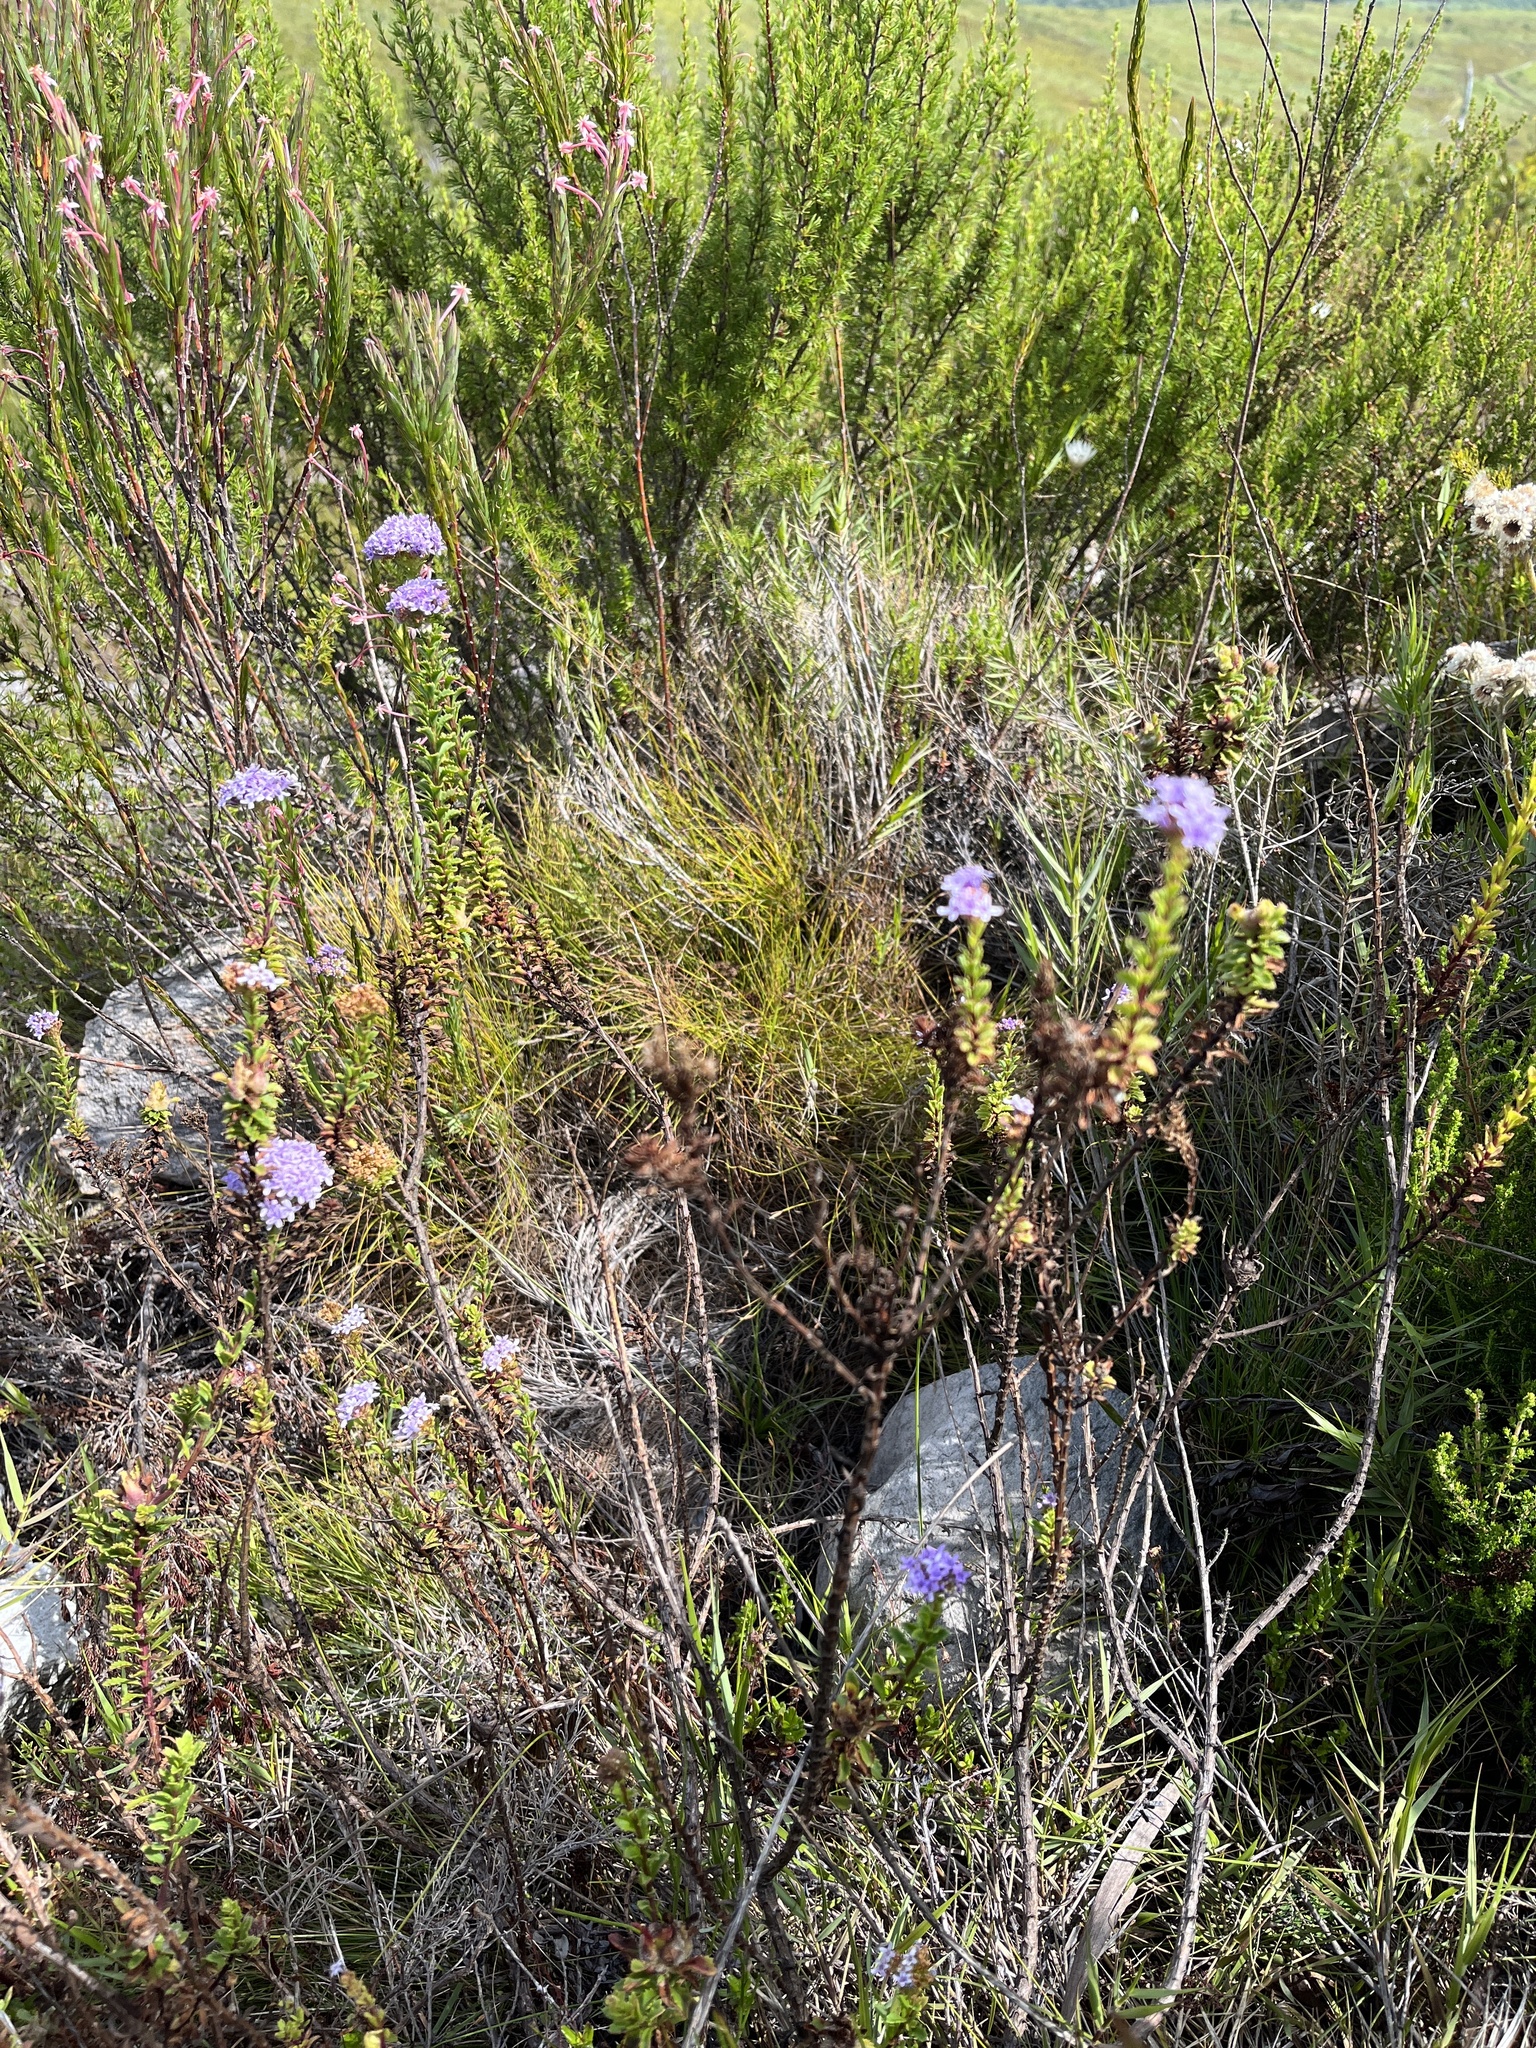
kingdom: Plantae
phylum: Tracheophyta
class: Magnoliopsida
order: Lamiales
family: Scrophulariaceae
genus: Pseudoselago
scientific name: Pseudoselago langebergensis
